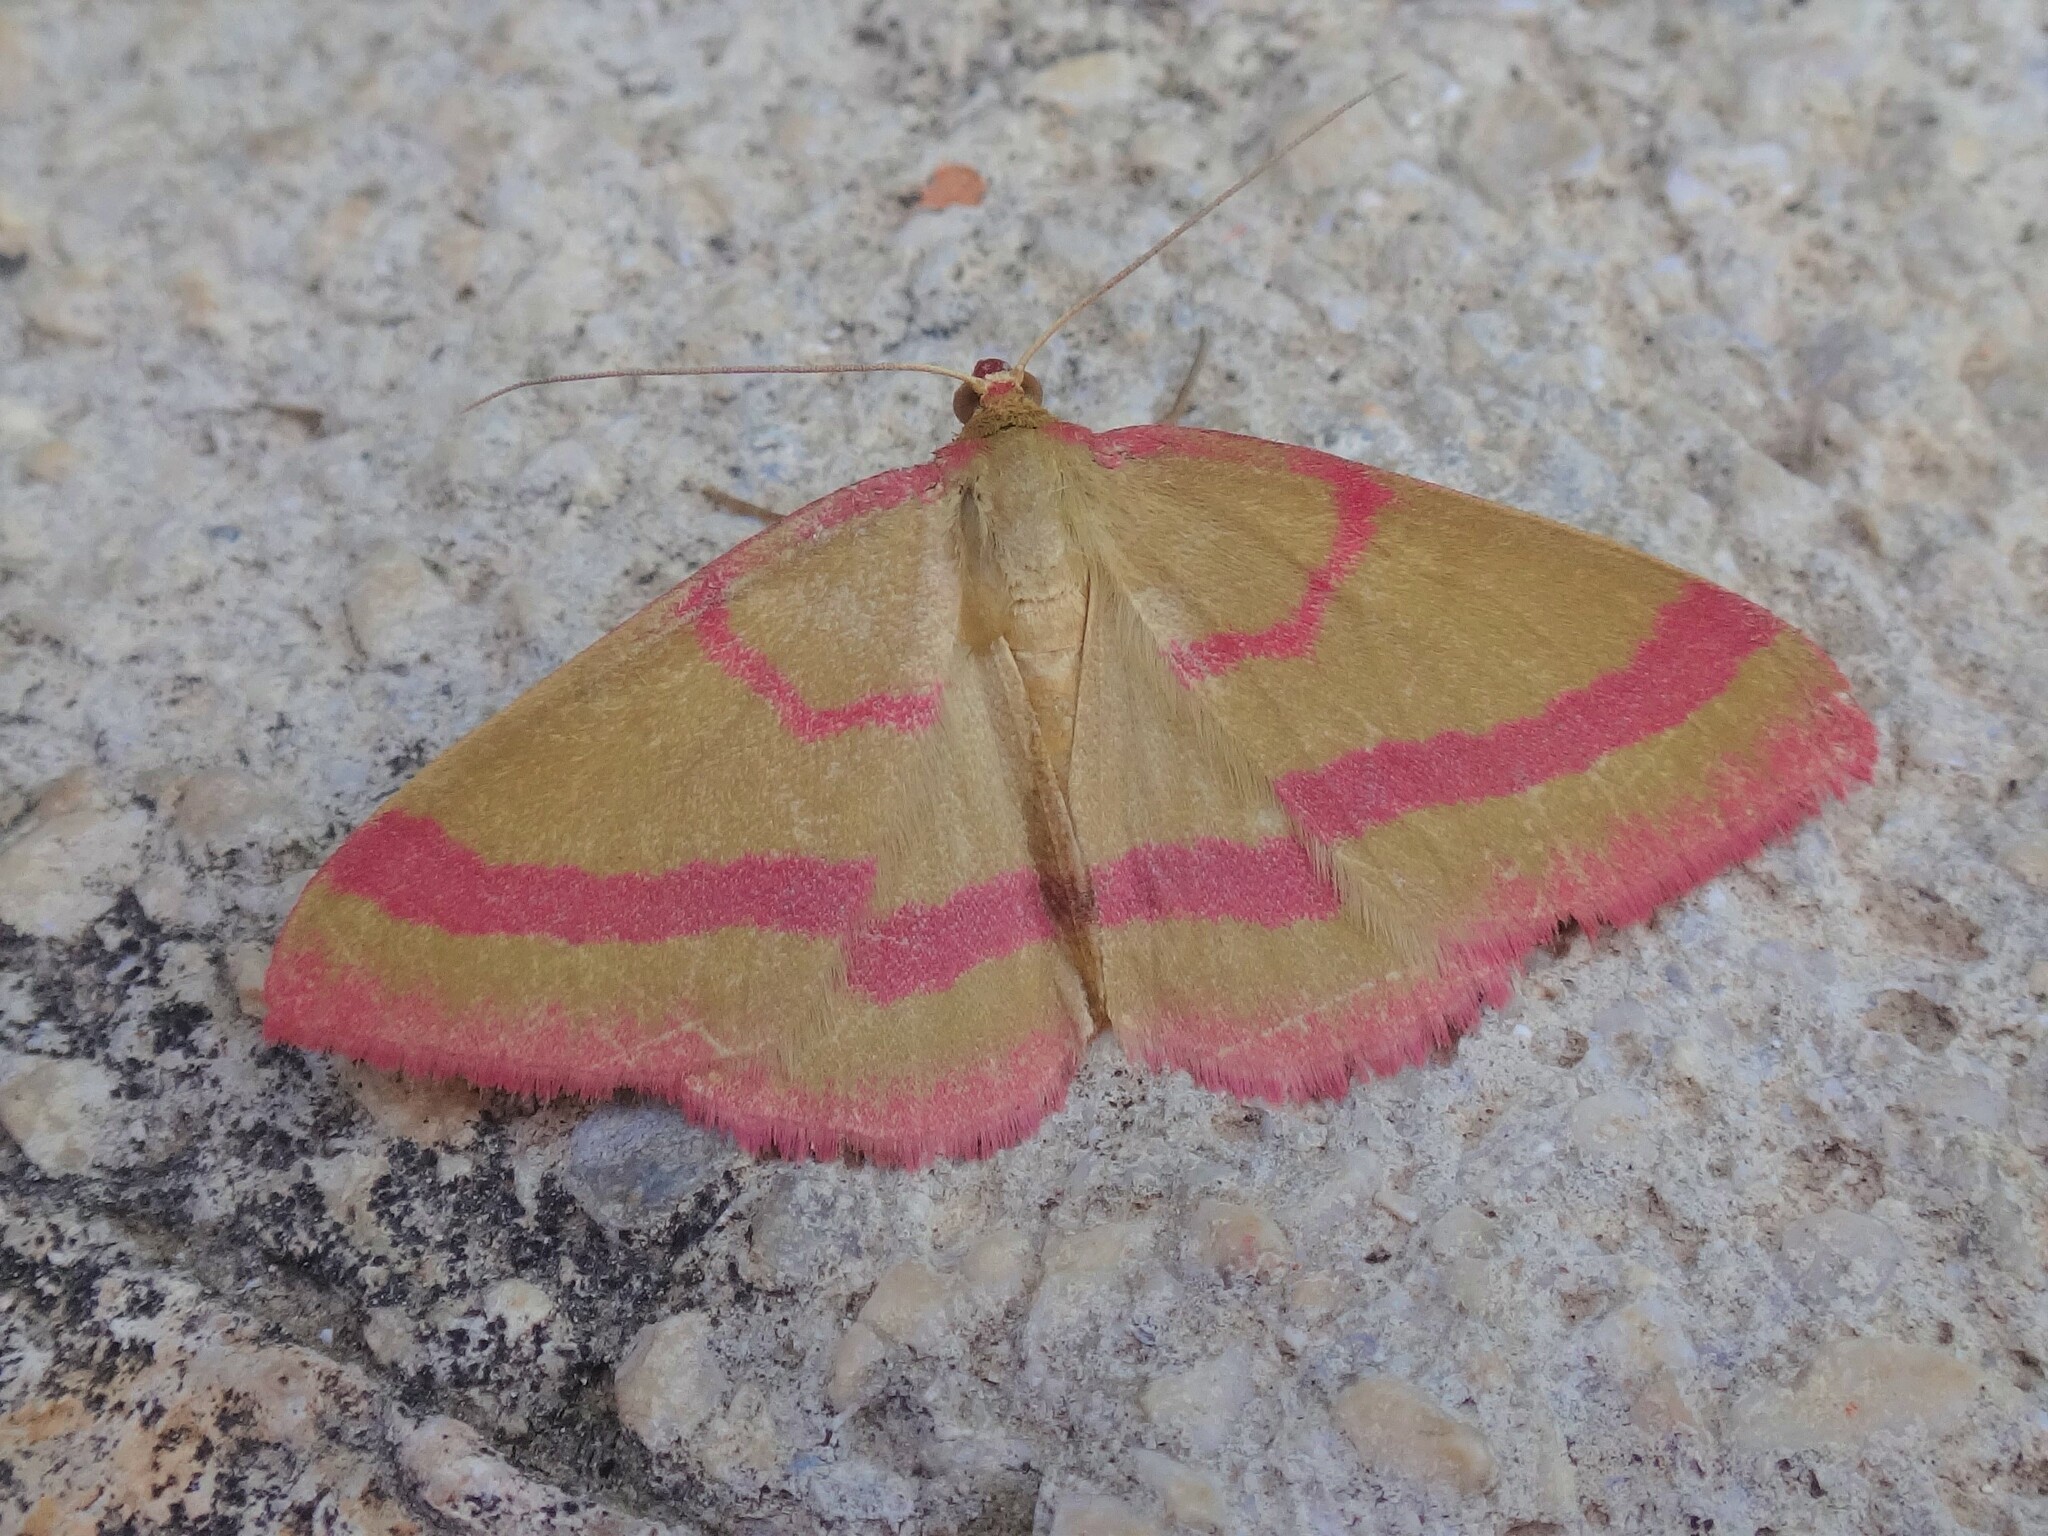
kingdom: Animalia
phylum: Arthropoda
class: Insecta
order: Lepidoptera
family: Geometridae
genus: Rhodostrophia
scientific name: Rhodostrophia calabra
